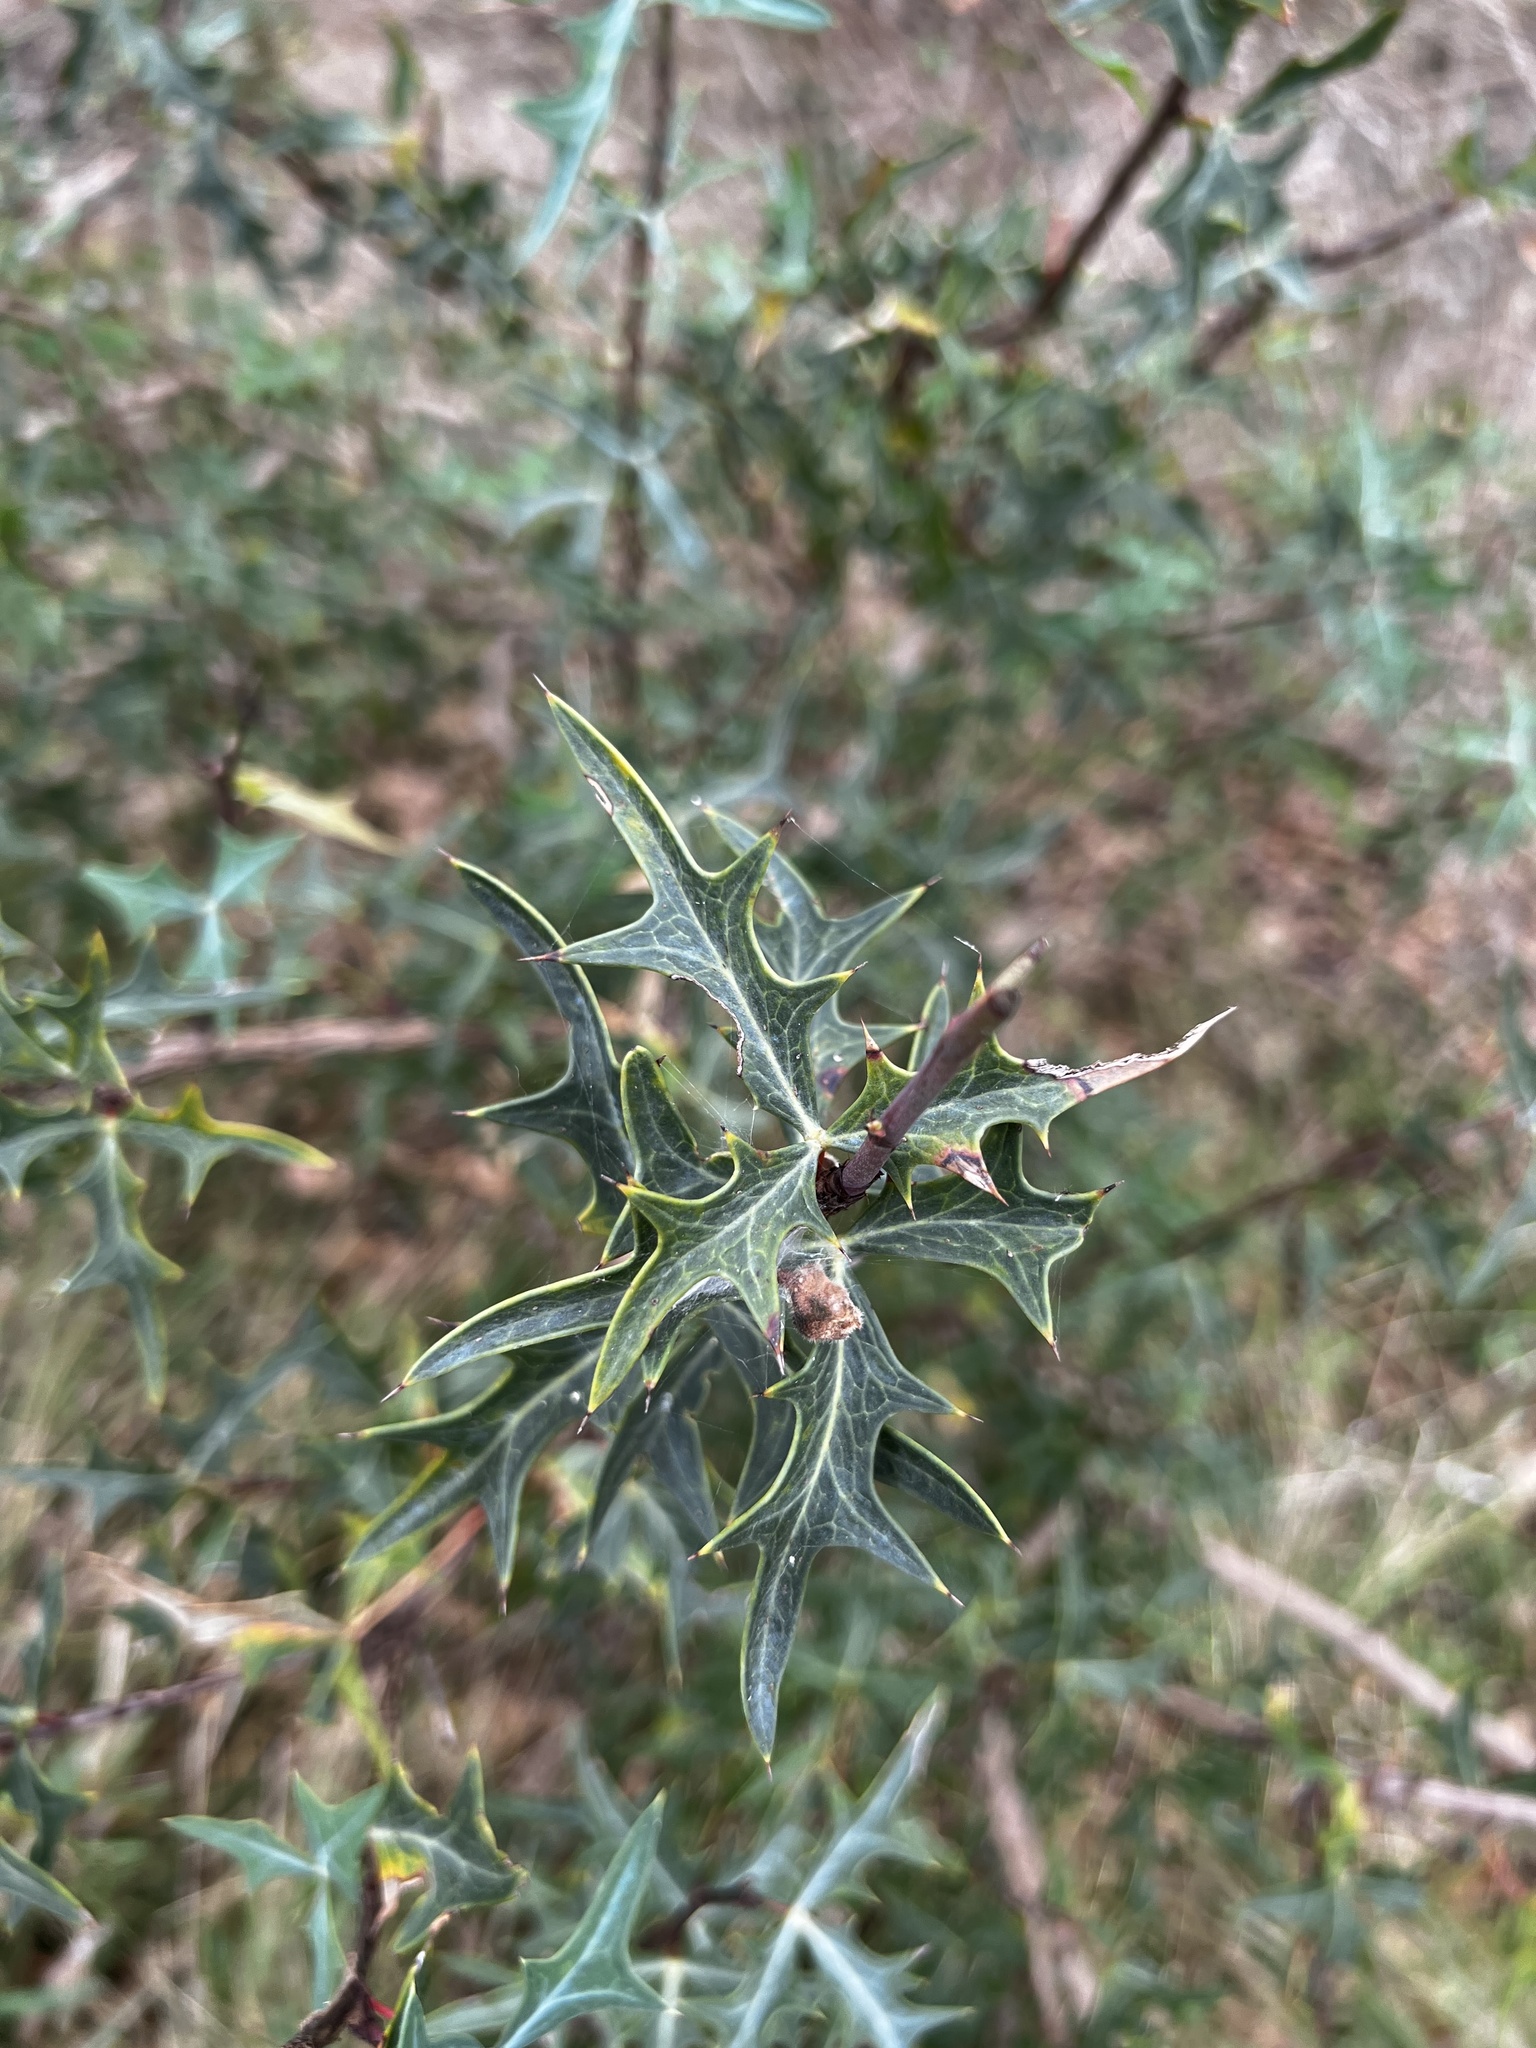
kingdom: Plantae
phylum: Tracheophyta
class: Magnoliopsida
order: Ranunculales
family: Berberidaceae
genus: Alloberberis
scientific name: Alloberberis trifoliolata
